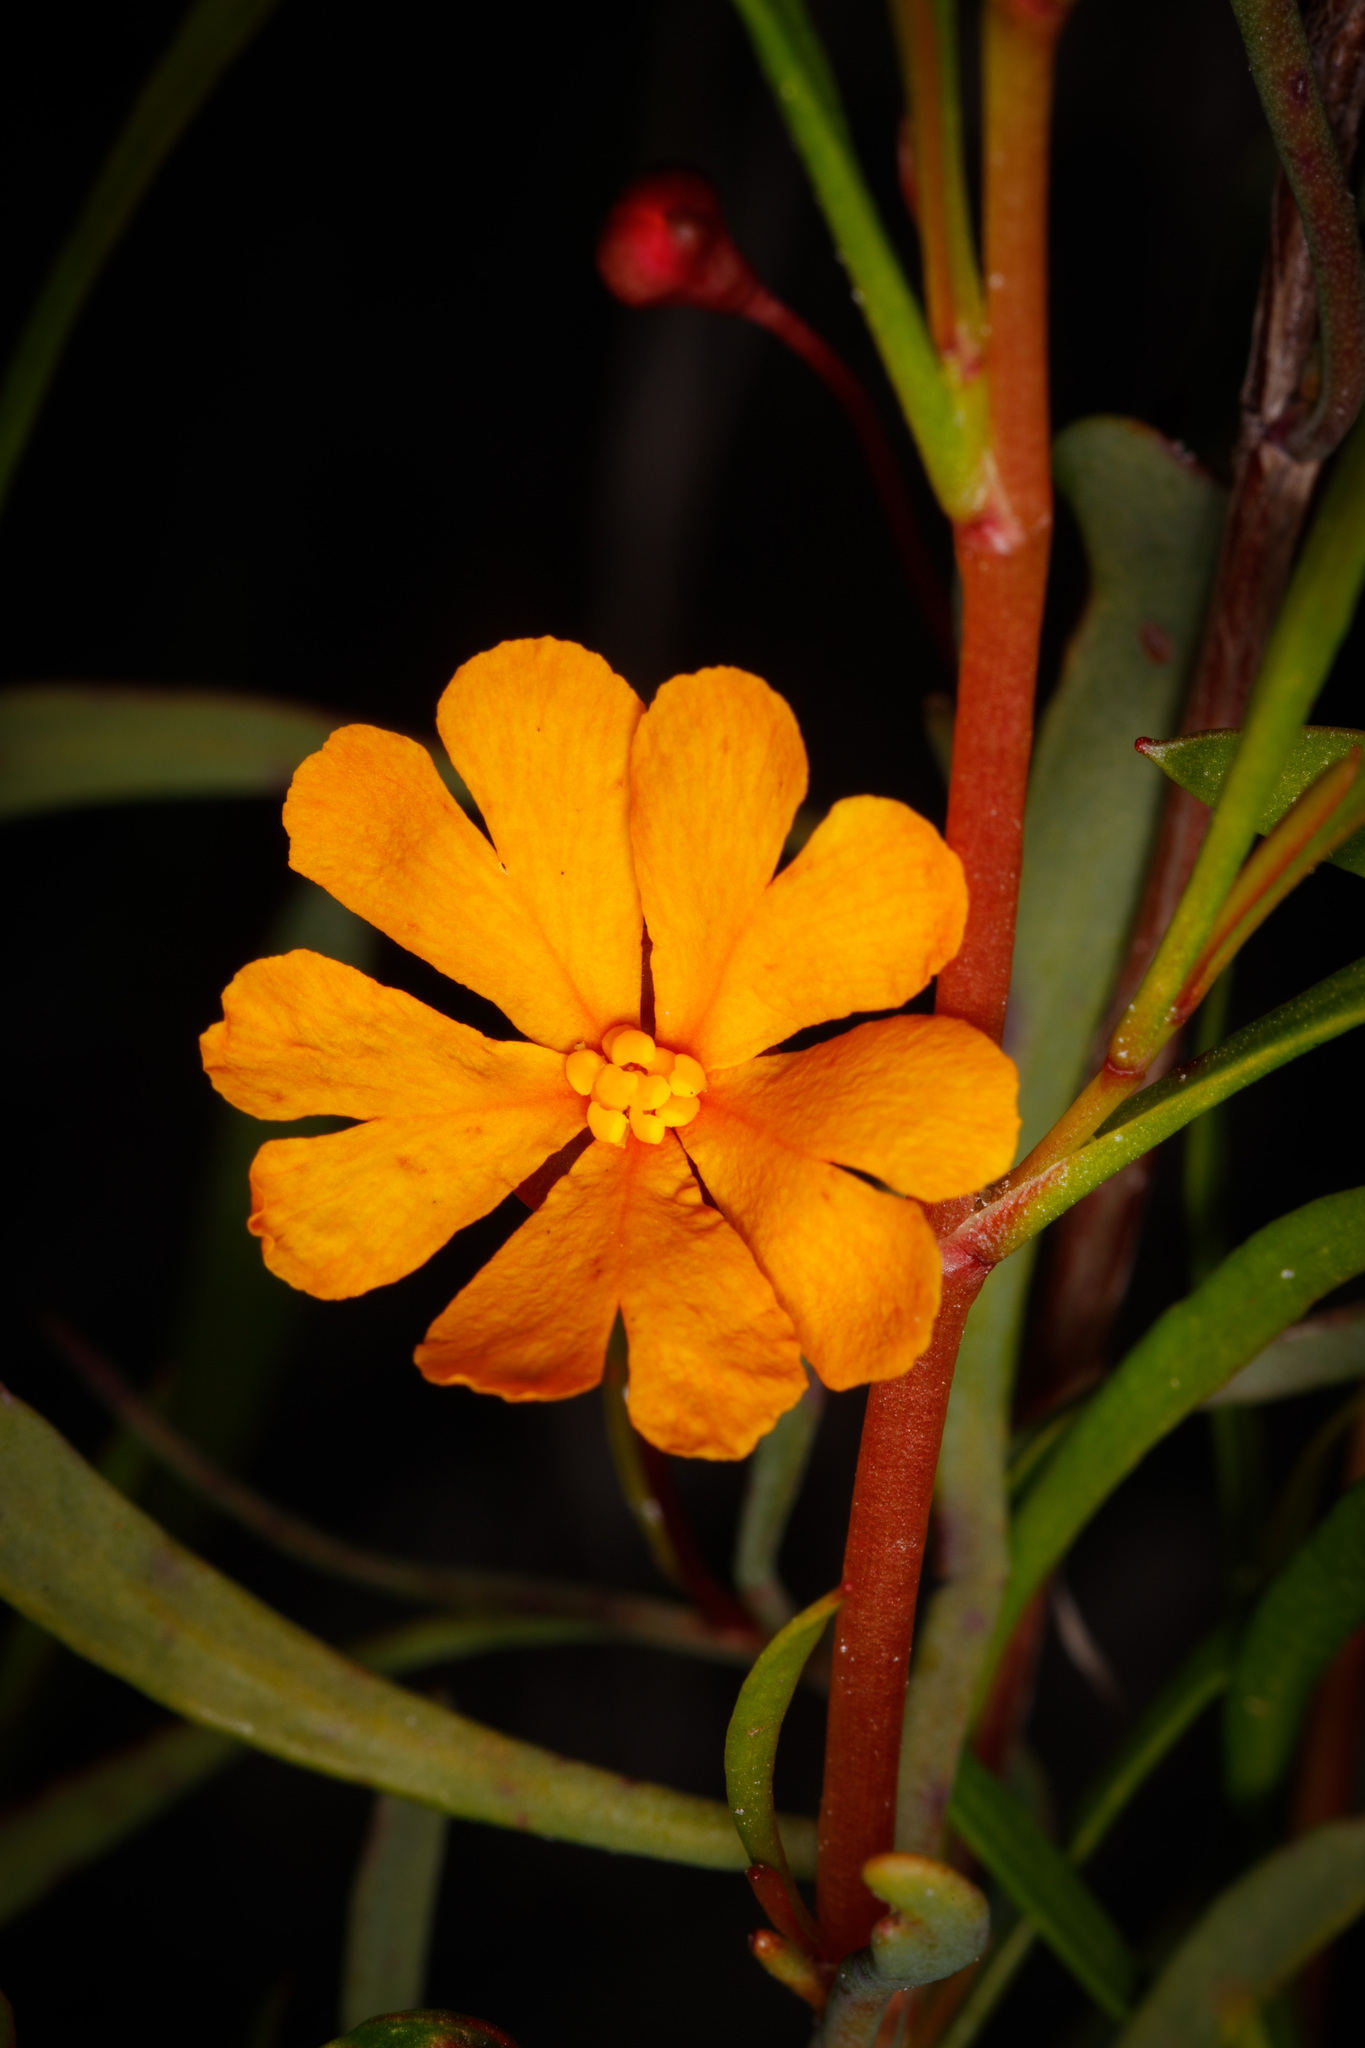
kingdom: Plantae
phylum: Tracheophyta
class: Magnoliopsida
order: Dilleniales
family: Dilleniaceae
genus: Hibbertia
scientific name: Hibbertia stellaris
